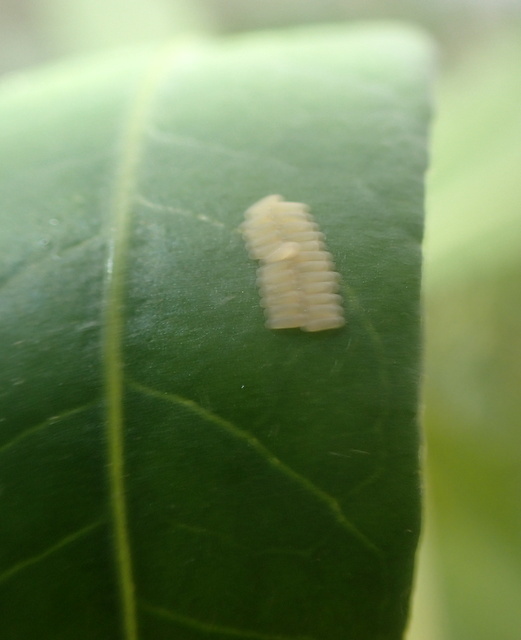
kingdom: Animalia
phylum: Arthropoda
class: Insecta
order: Coleoptera
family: Chrysomelidae
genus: Agasicles
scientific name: Agasicles hygrophila
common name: Alligatorweed flea beetle
